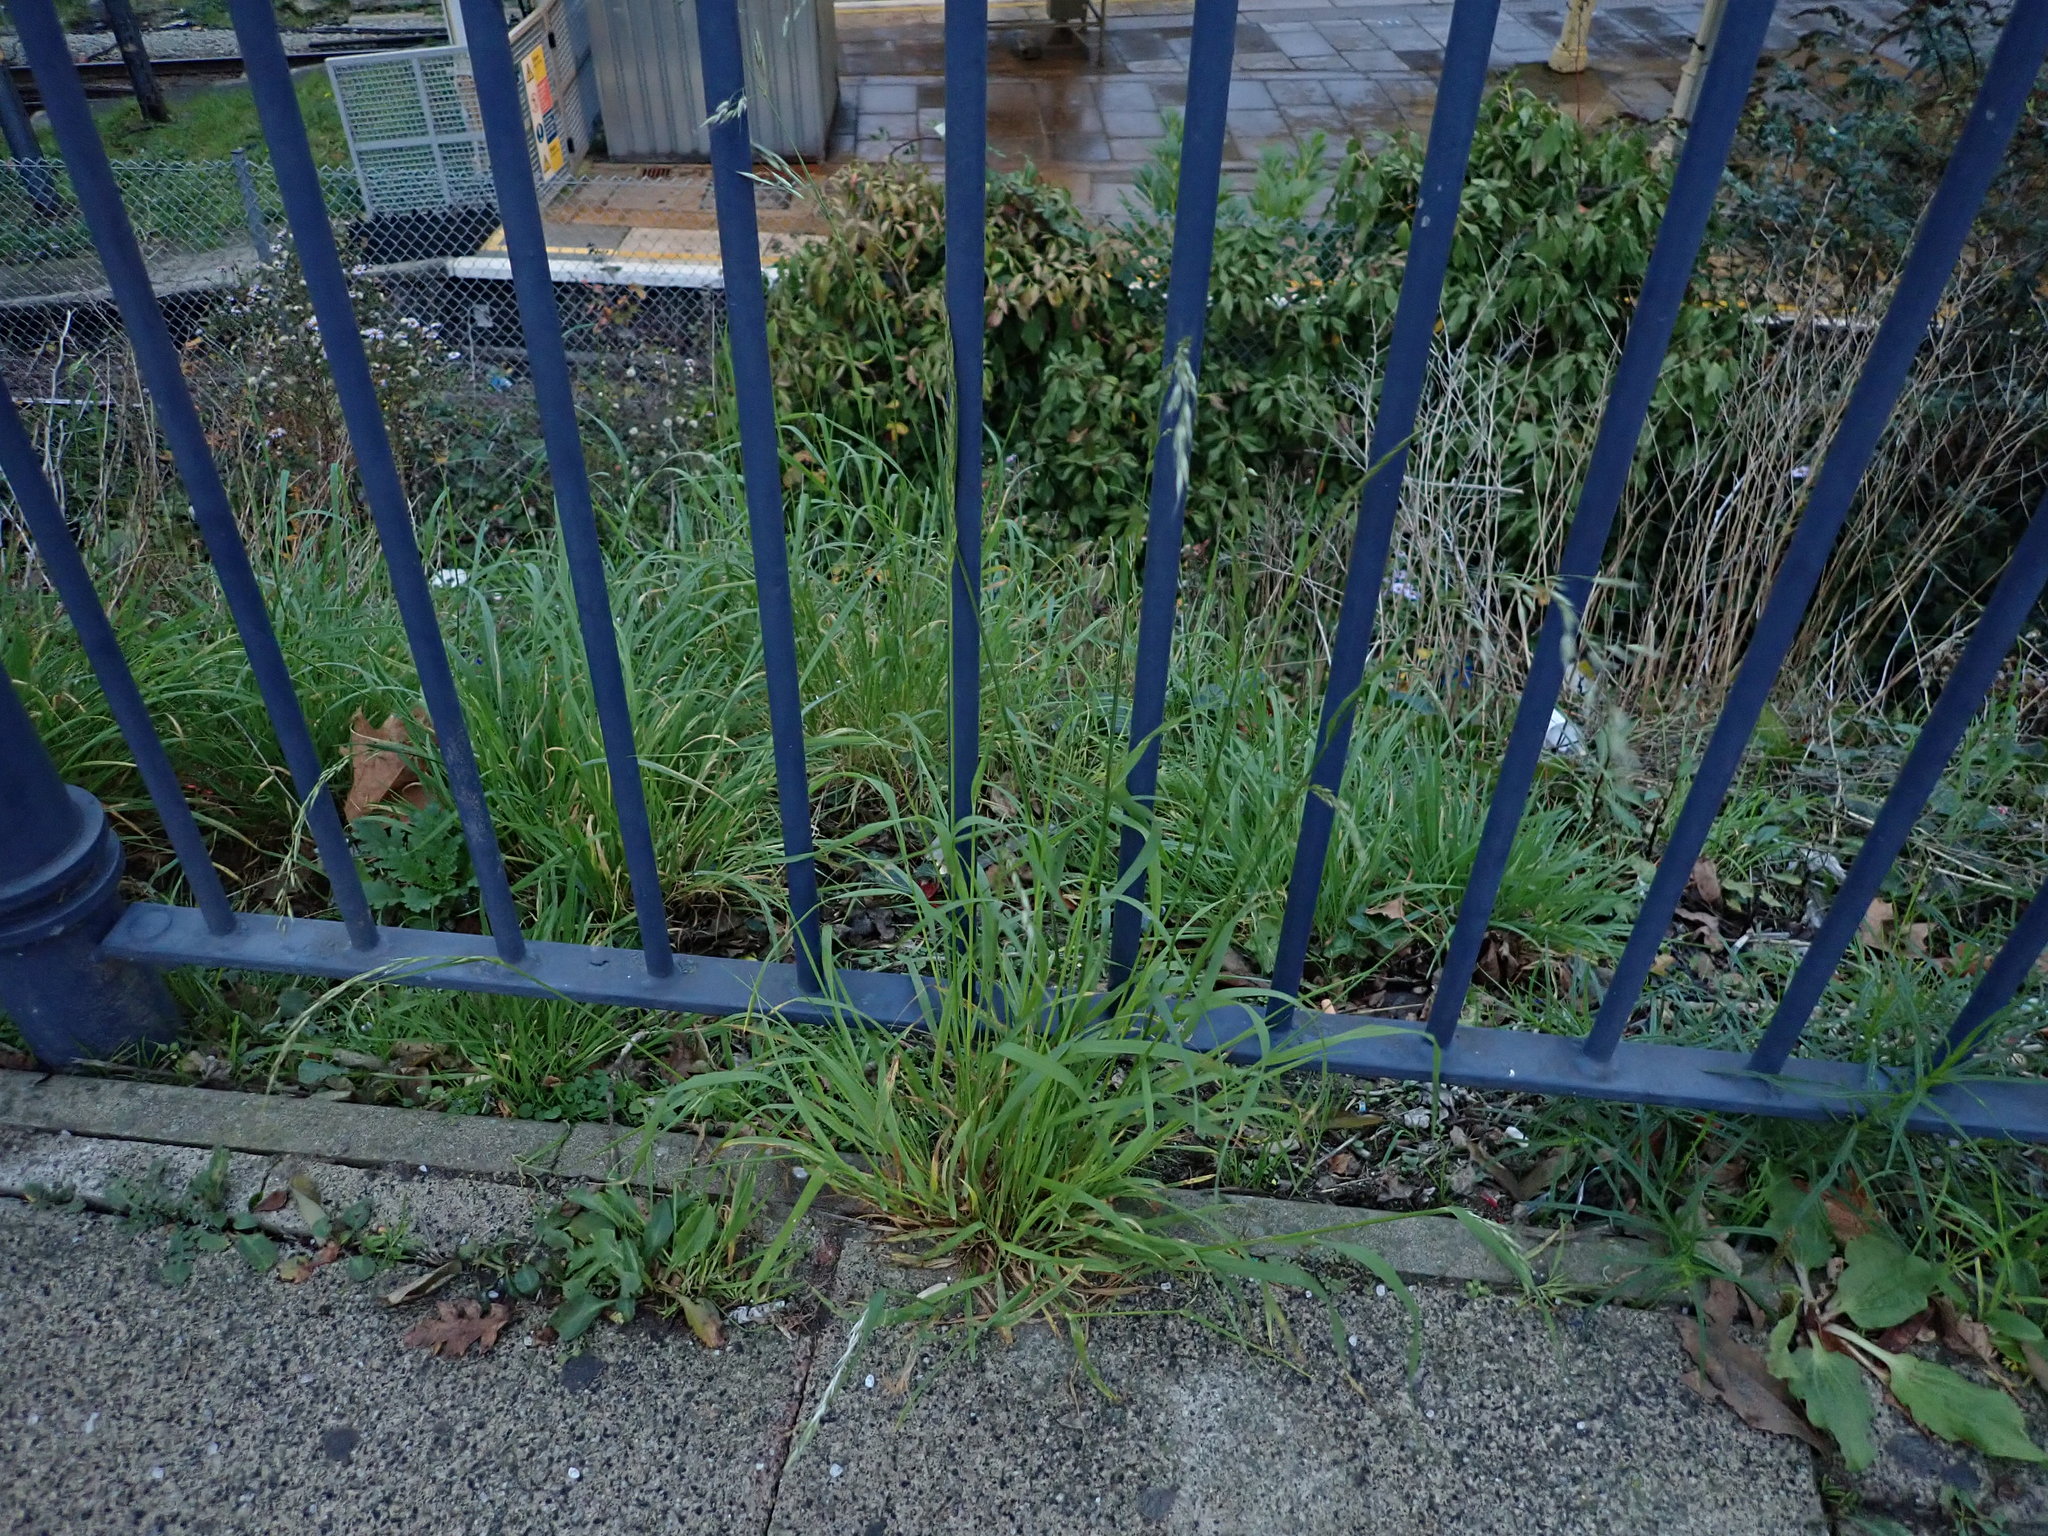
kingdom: Plantae
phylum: Tracheophyta
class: Liliopsida
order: Poales
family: Poaceae
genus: Arrhenatherum
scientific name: Arrhenatherum elatius
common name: Tall oatgrass
